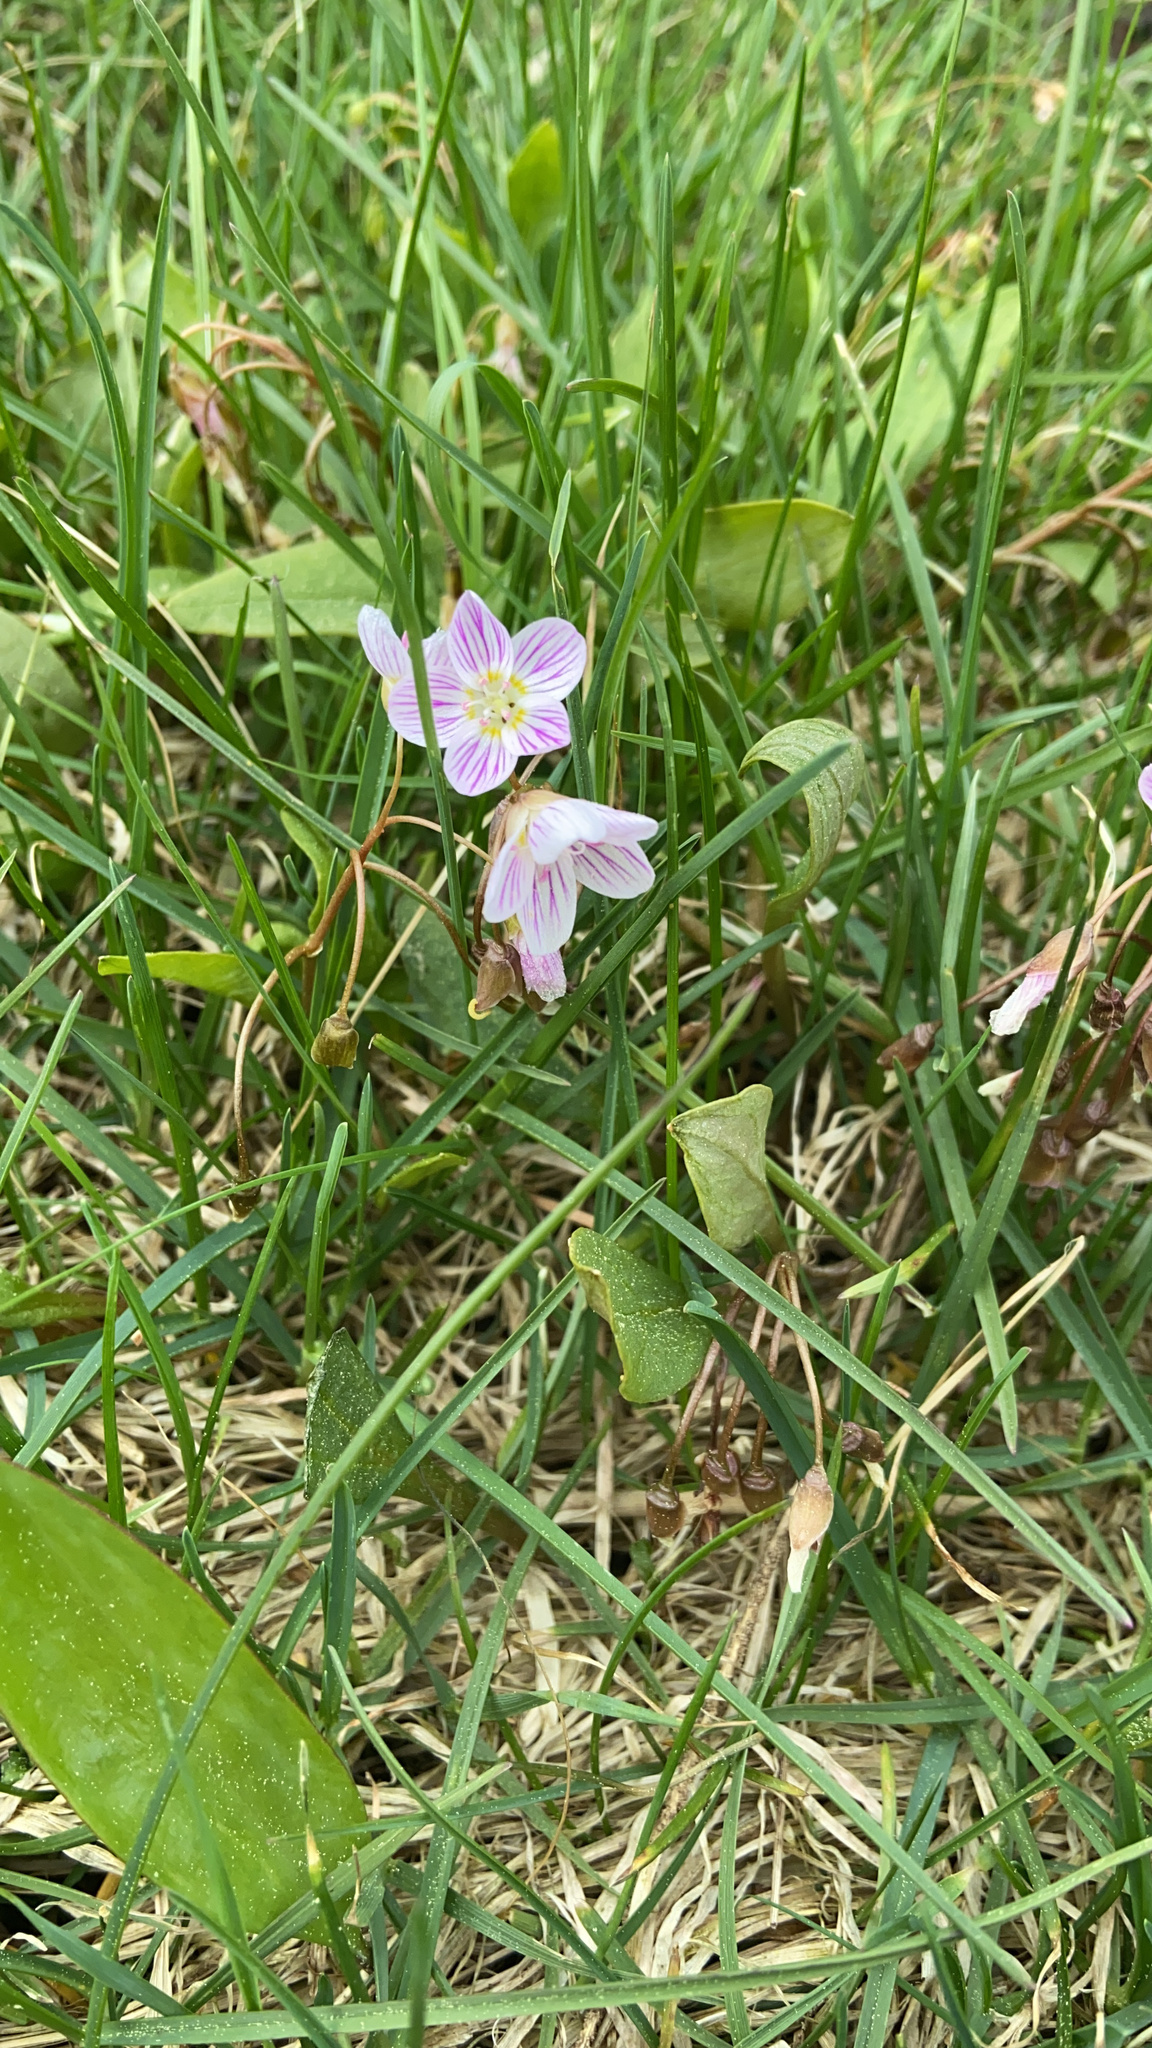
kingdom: Plantae
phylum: Tracheophyta
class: Magnoliopsida
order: Caryophyllales
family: Montiaceae
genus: Claytonia
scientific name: Claytonia caroliniana
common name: Carolina spring beauty
